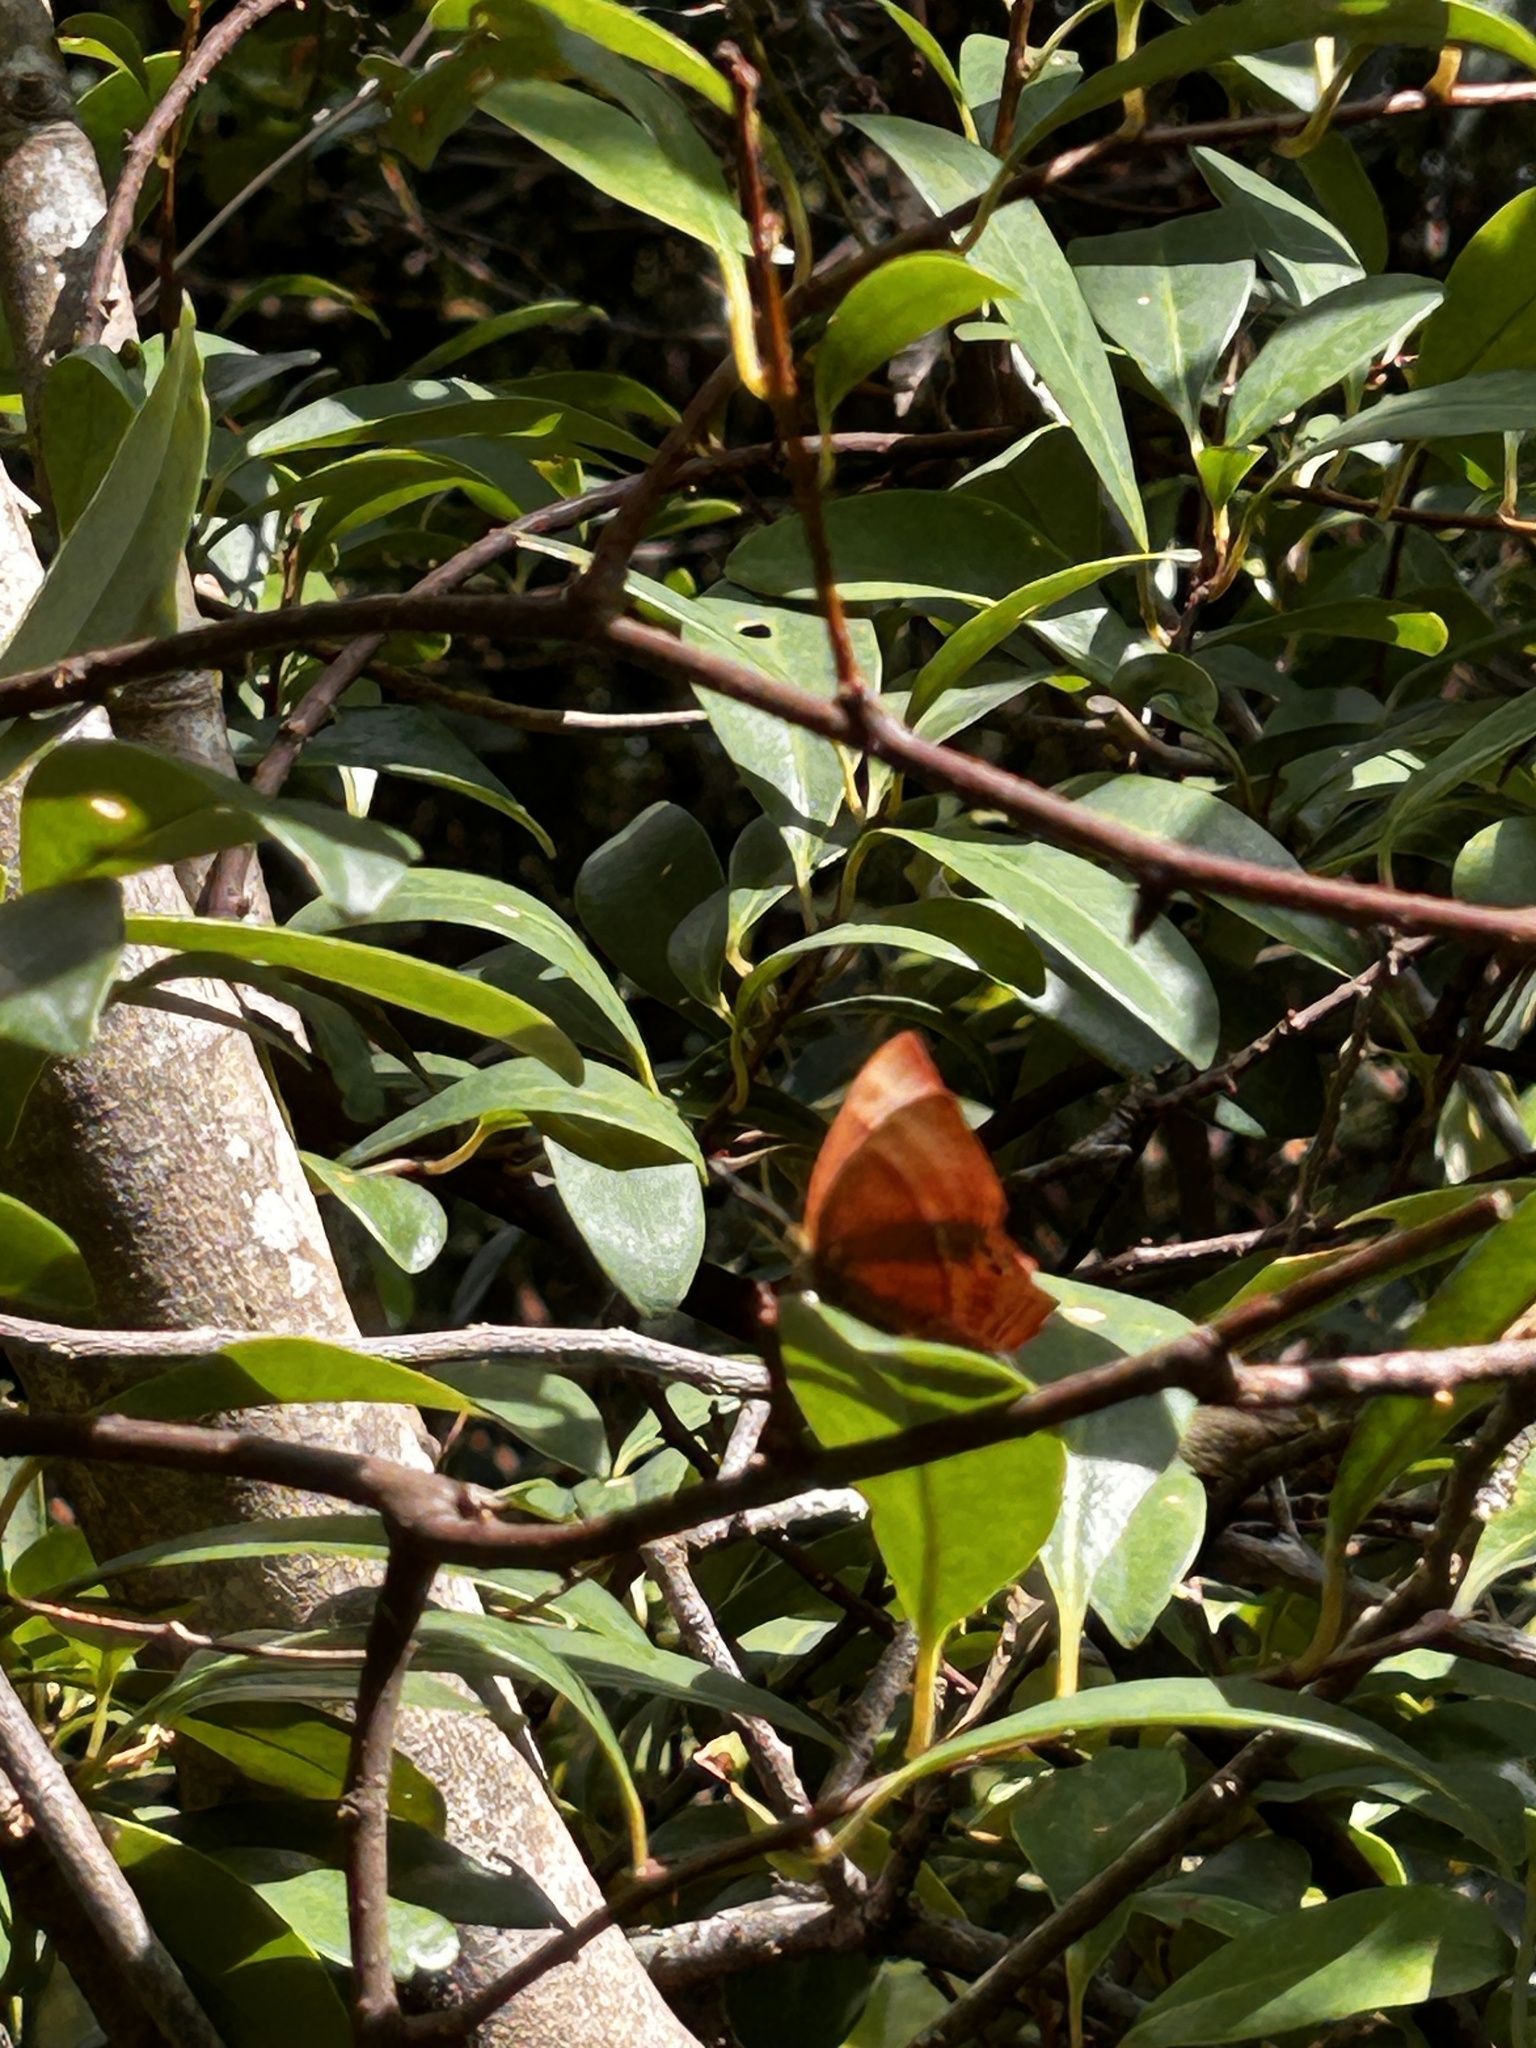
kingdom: Animalia
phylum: Arthropoda
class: Insecta
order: Lepidoptera
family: Lycaenidae
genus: Abisara
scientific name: Abisara echeria
